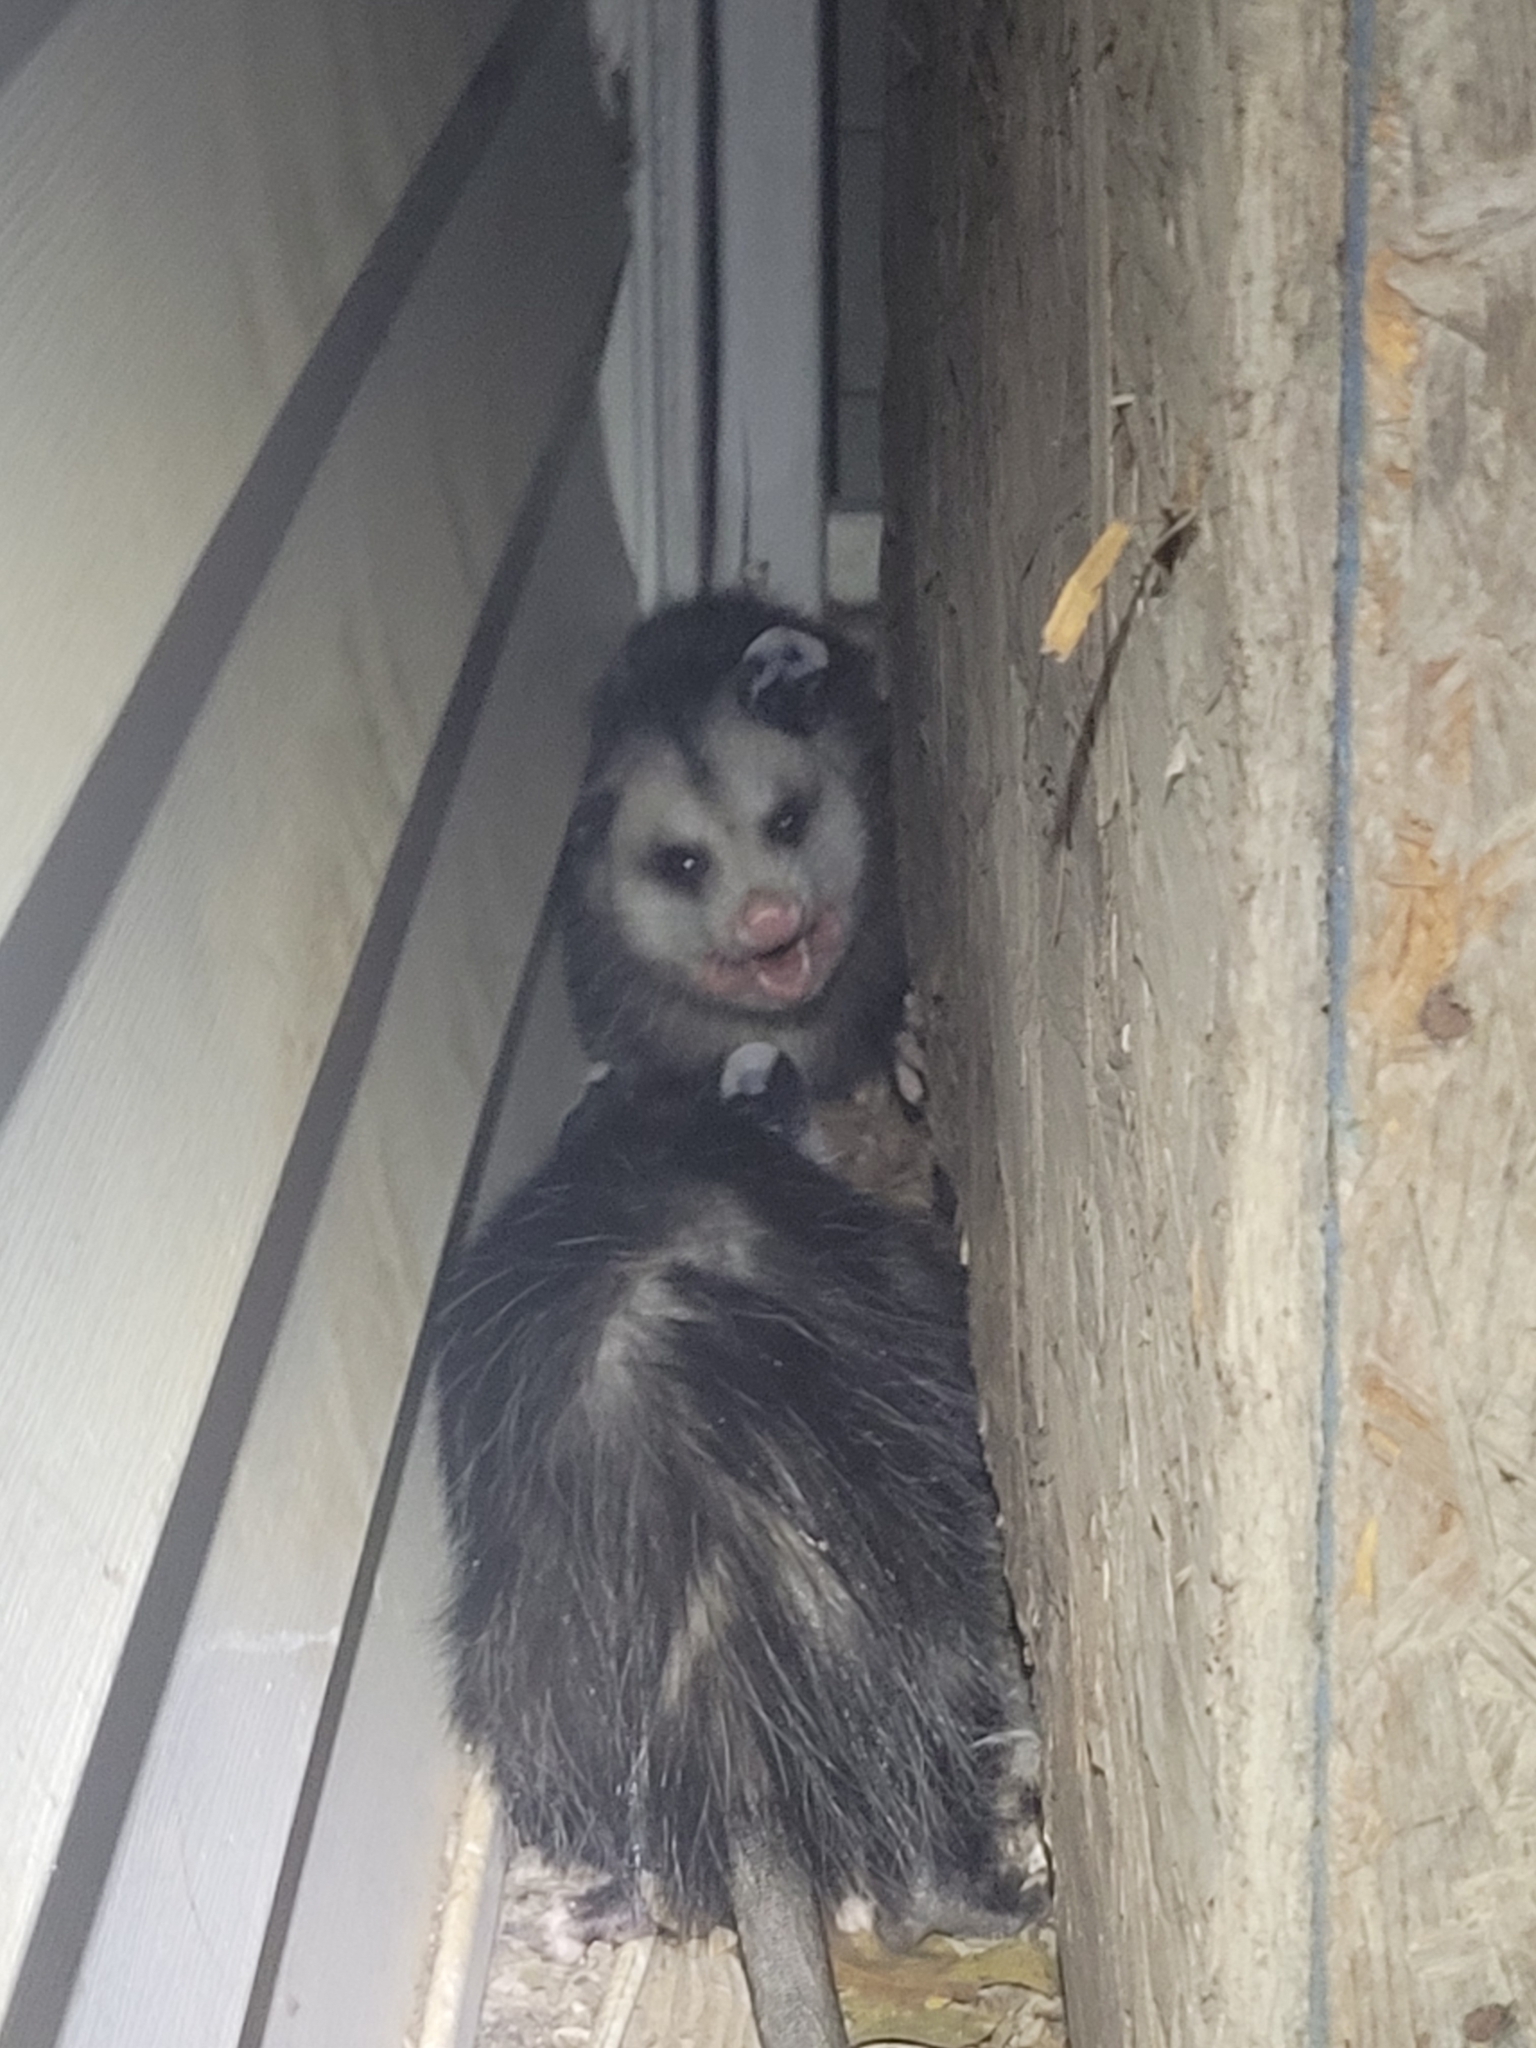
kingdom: Animalia
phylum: Chordata
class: Mammalia
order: Didelphimorphia
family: Didelphidae
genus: Didelphis
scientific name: Didelphis virginiana
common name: Virginia opossum
